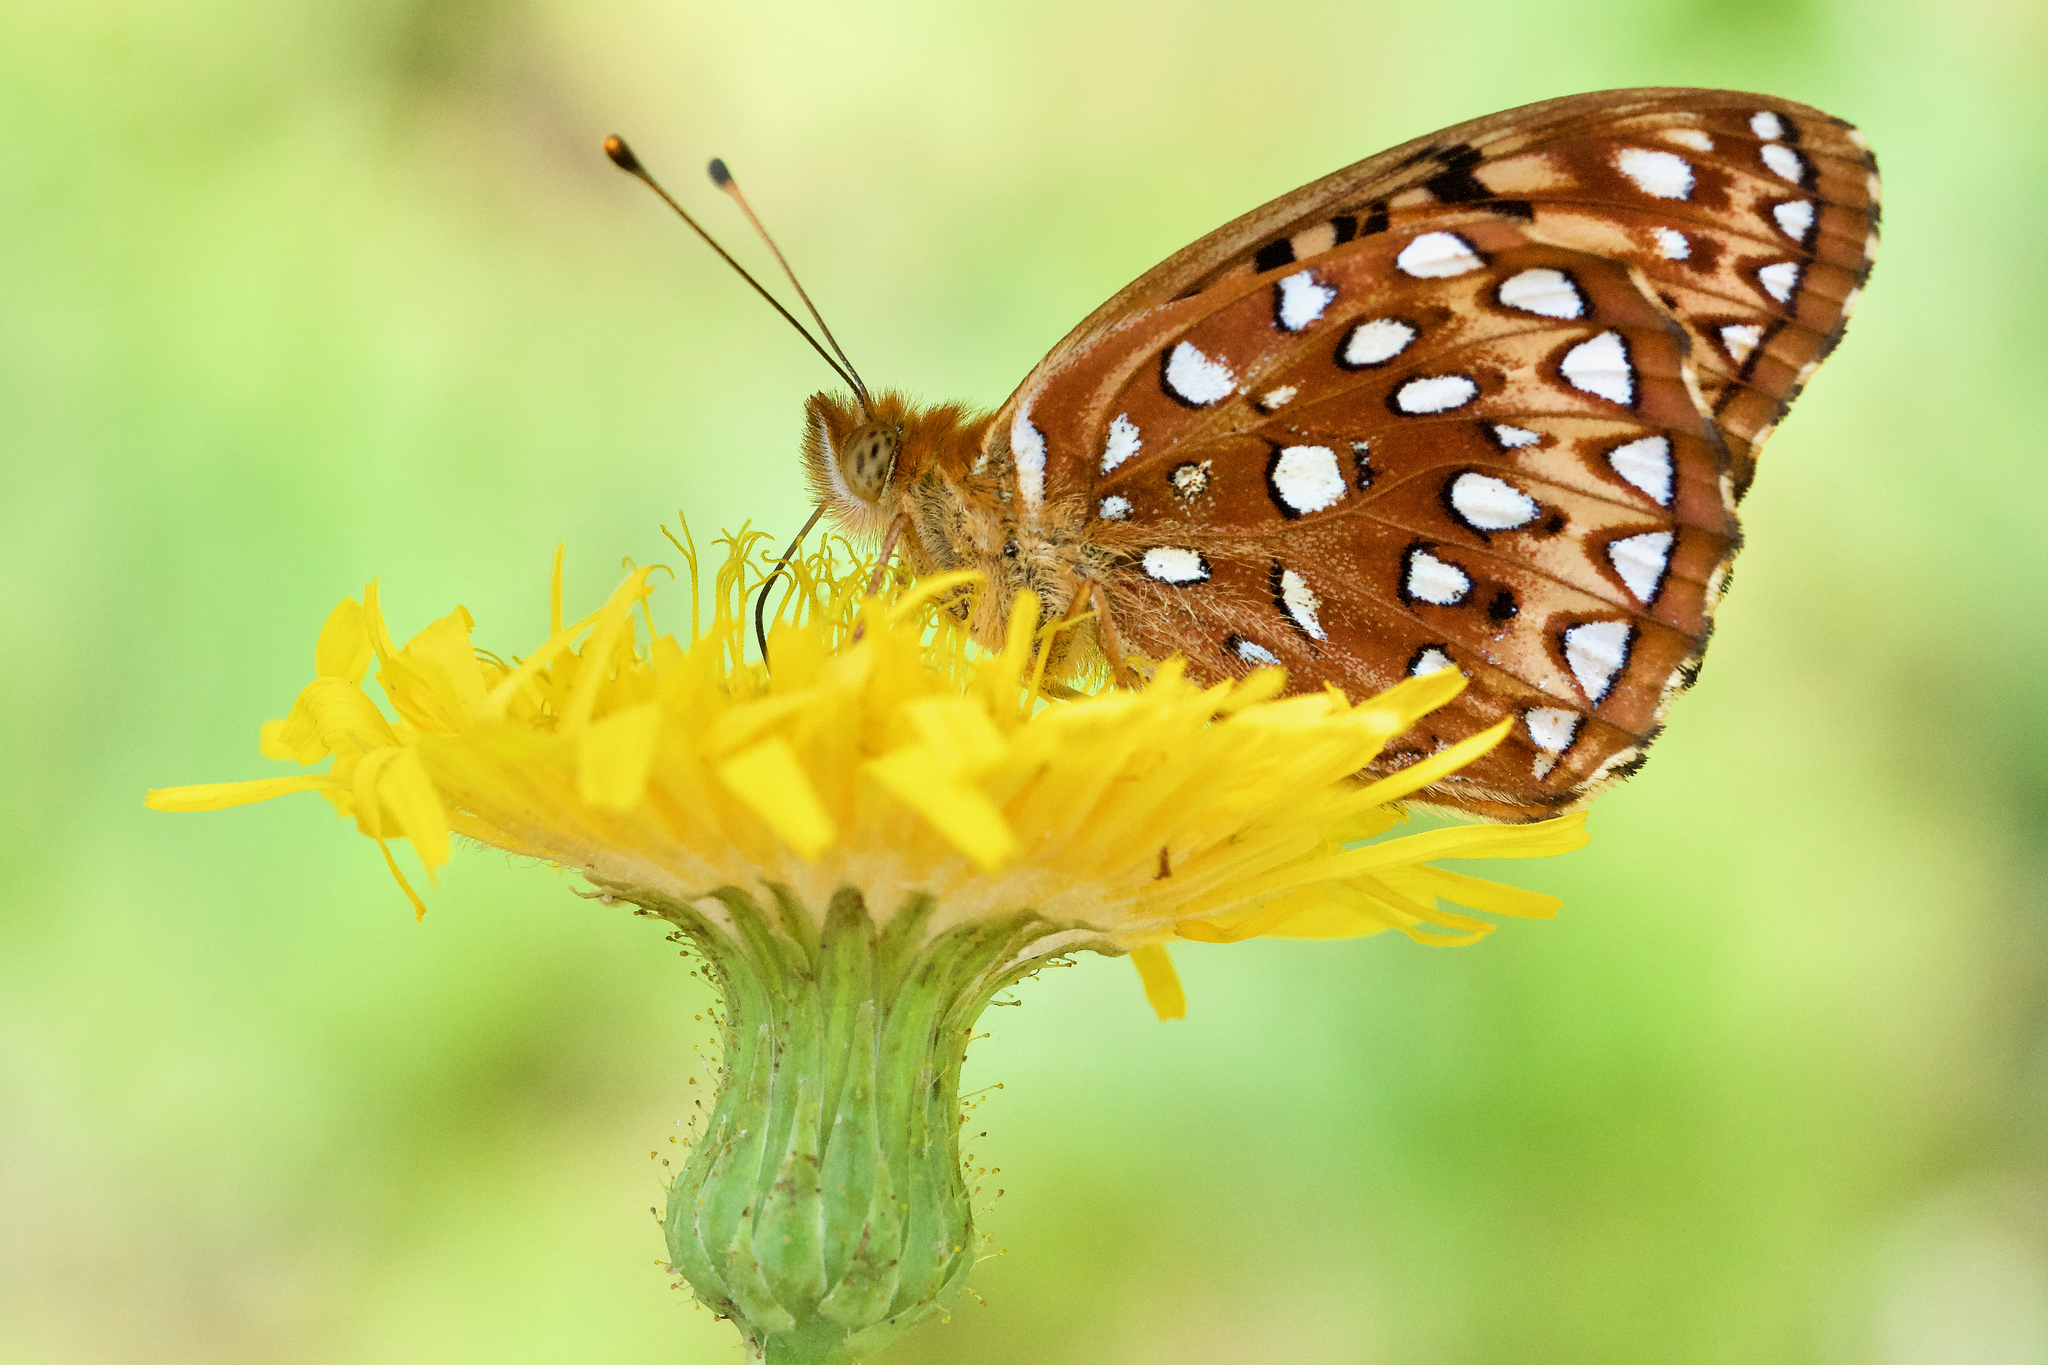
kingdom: Animalia
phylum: Arthropoda
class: Insecta
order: Lepidoptera
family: Nymphalidae
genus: Speyeria
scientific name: Speyeria aphrodite
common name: Aphrodite friitllary
